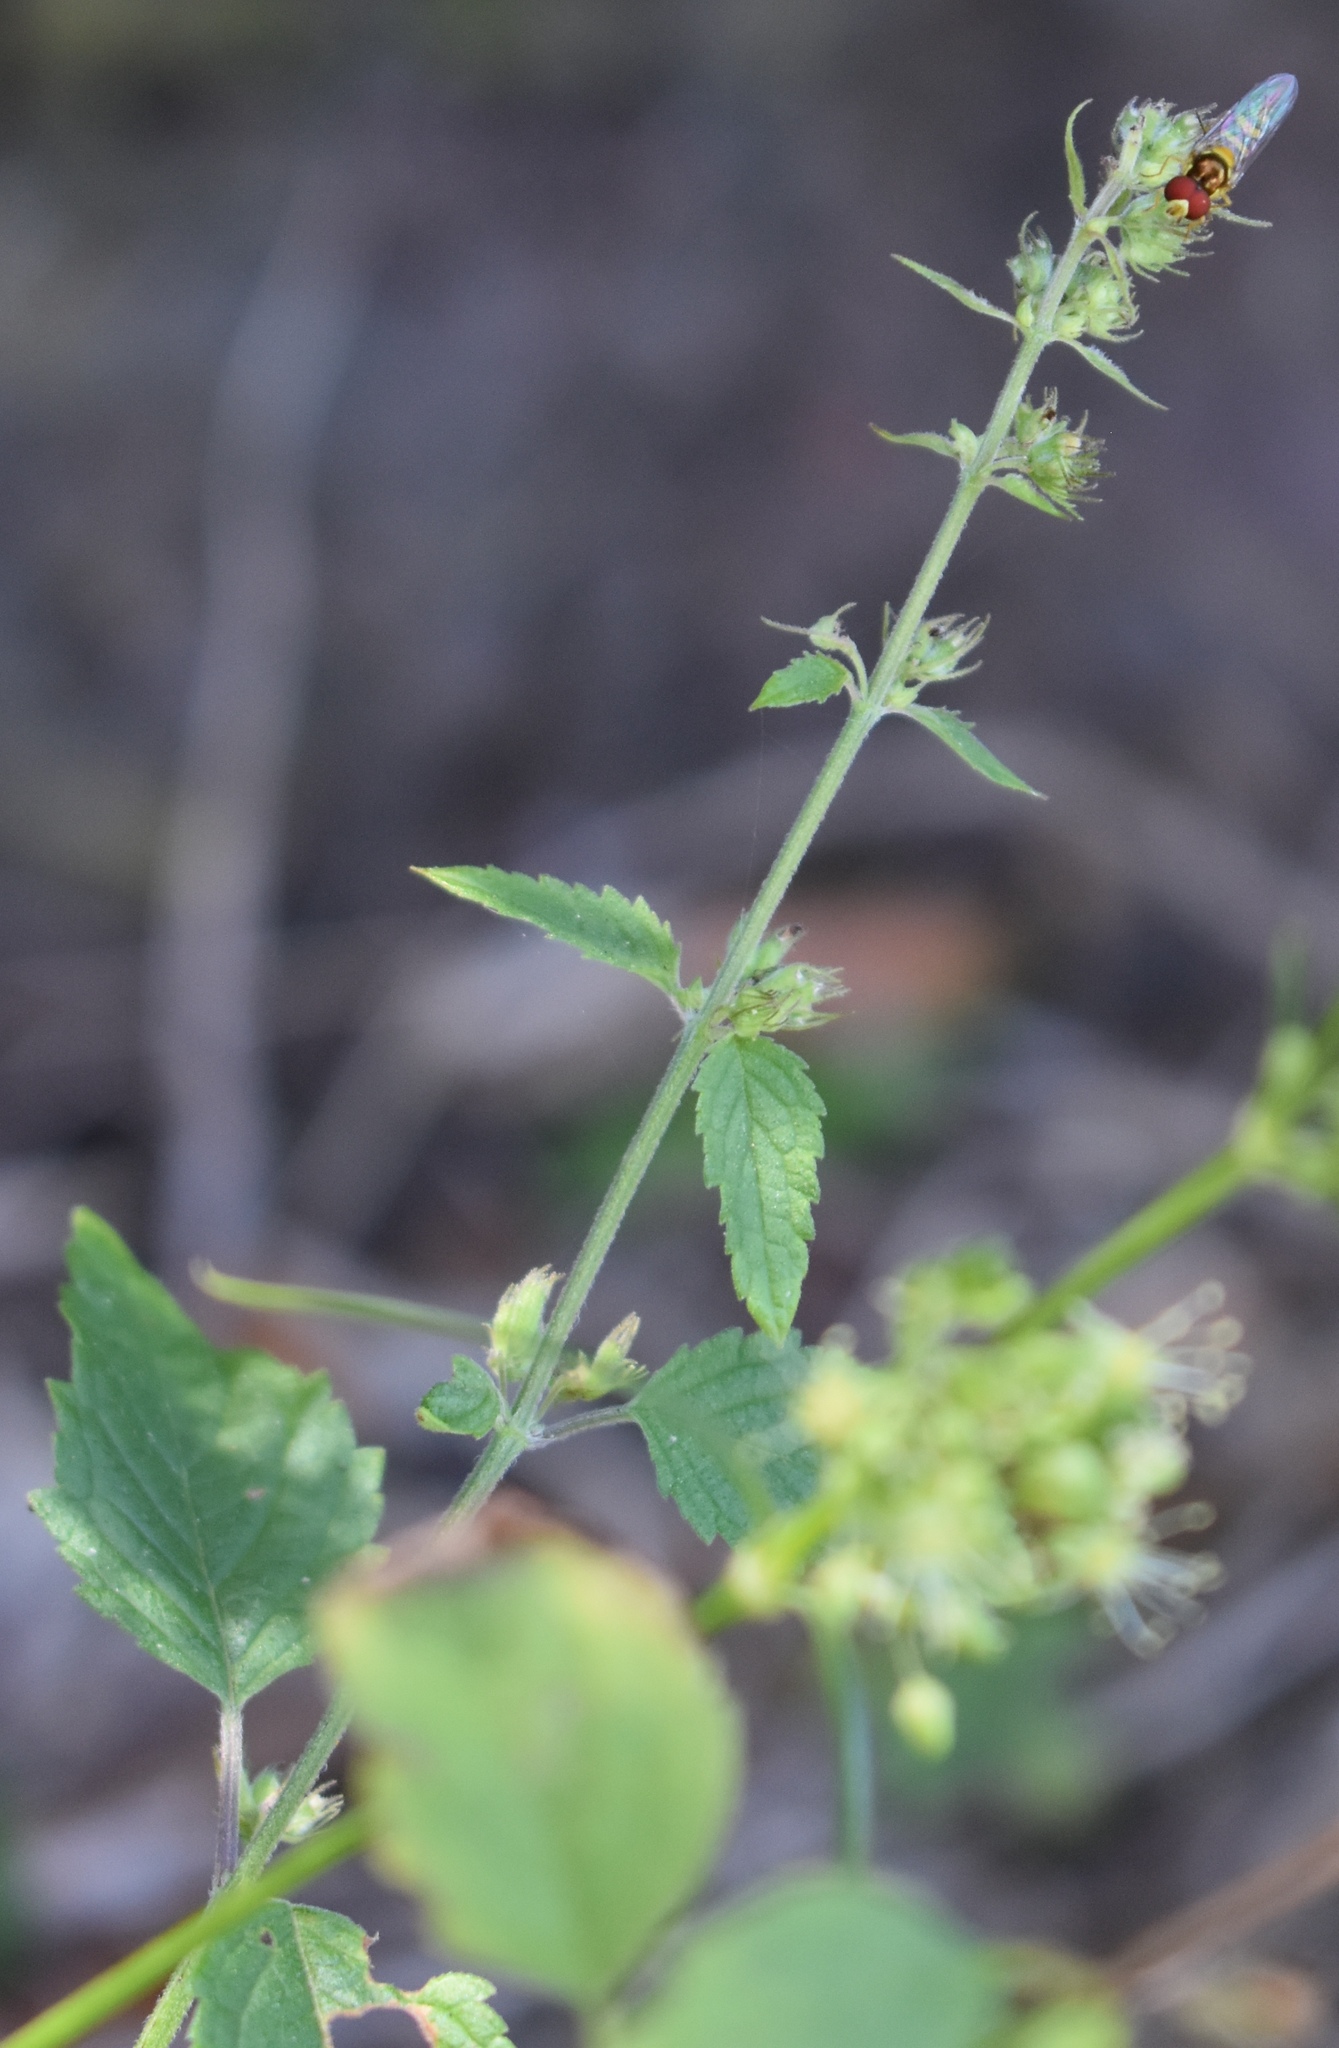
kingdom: Animalia
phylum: Arthropoda
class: Insecta
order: Diptera
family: Syrphidae
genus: Allograpta
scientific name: Allograpta obliqua
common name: Common oblique syrphid
